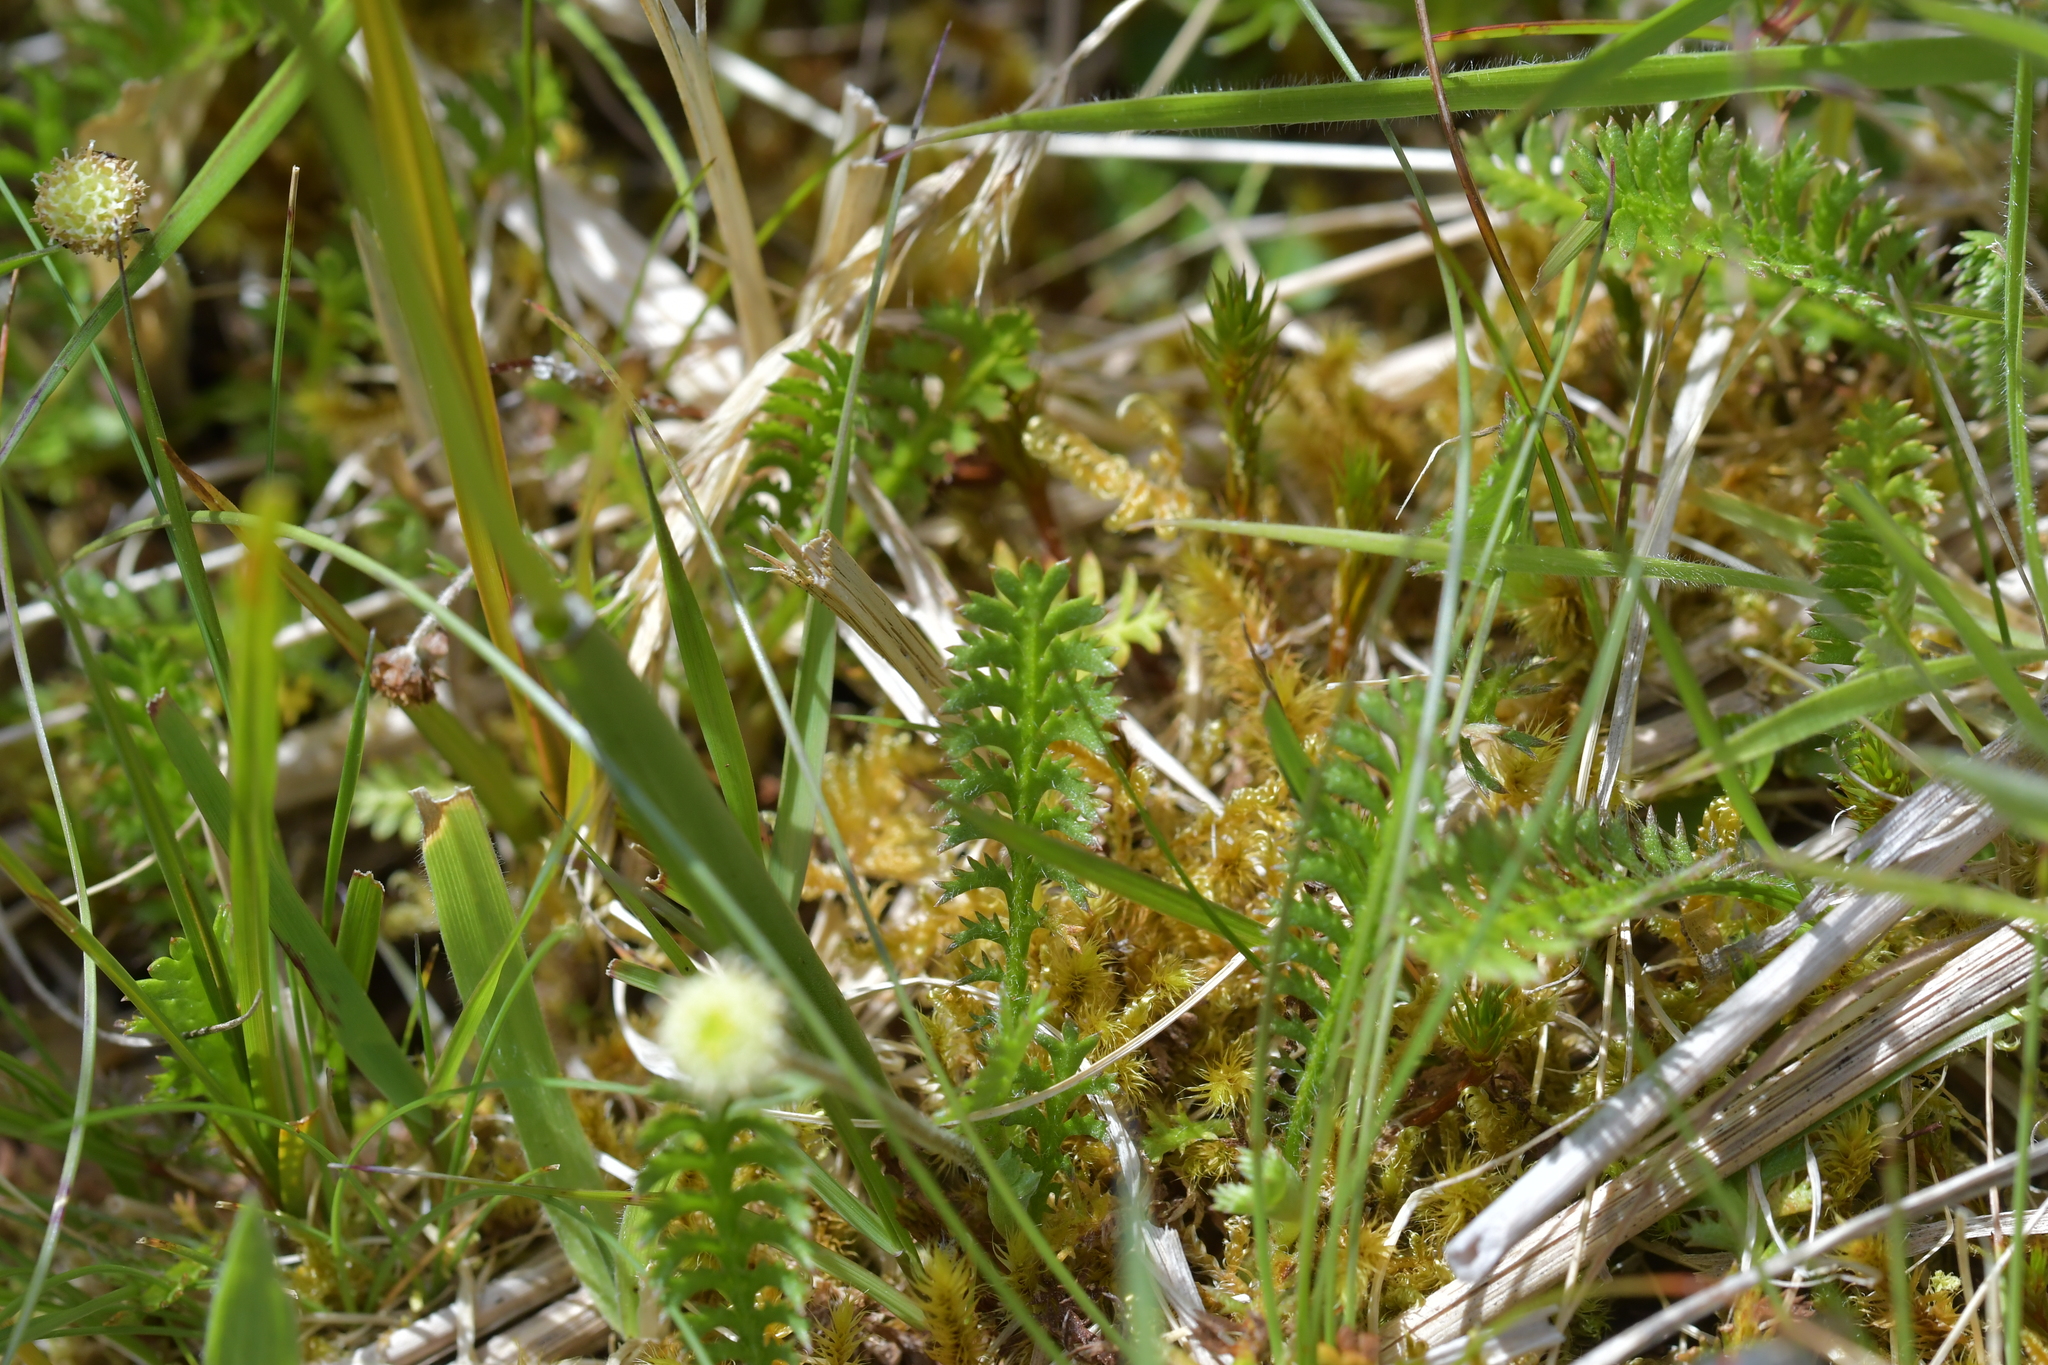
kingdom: Plantae
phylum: Tracheophyta
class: Magnoliopsida
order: Asterales
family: Asteraceae
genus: Leptinella
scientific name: Leptinella squalida
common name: New zealand brass-buttons
